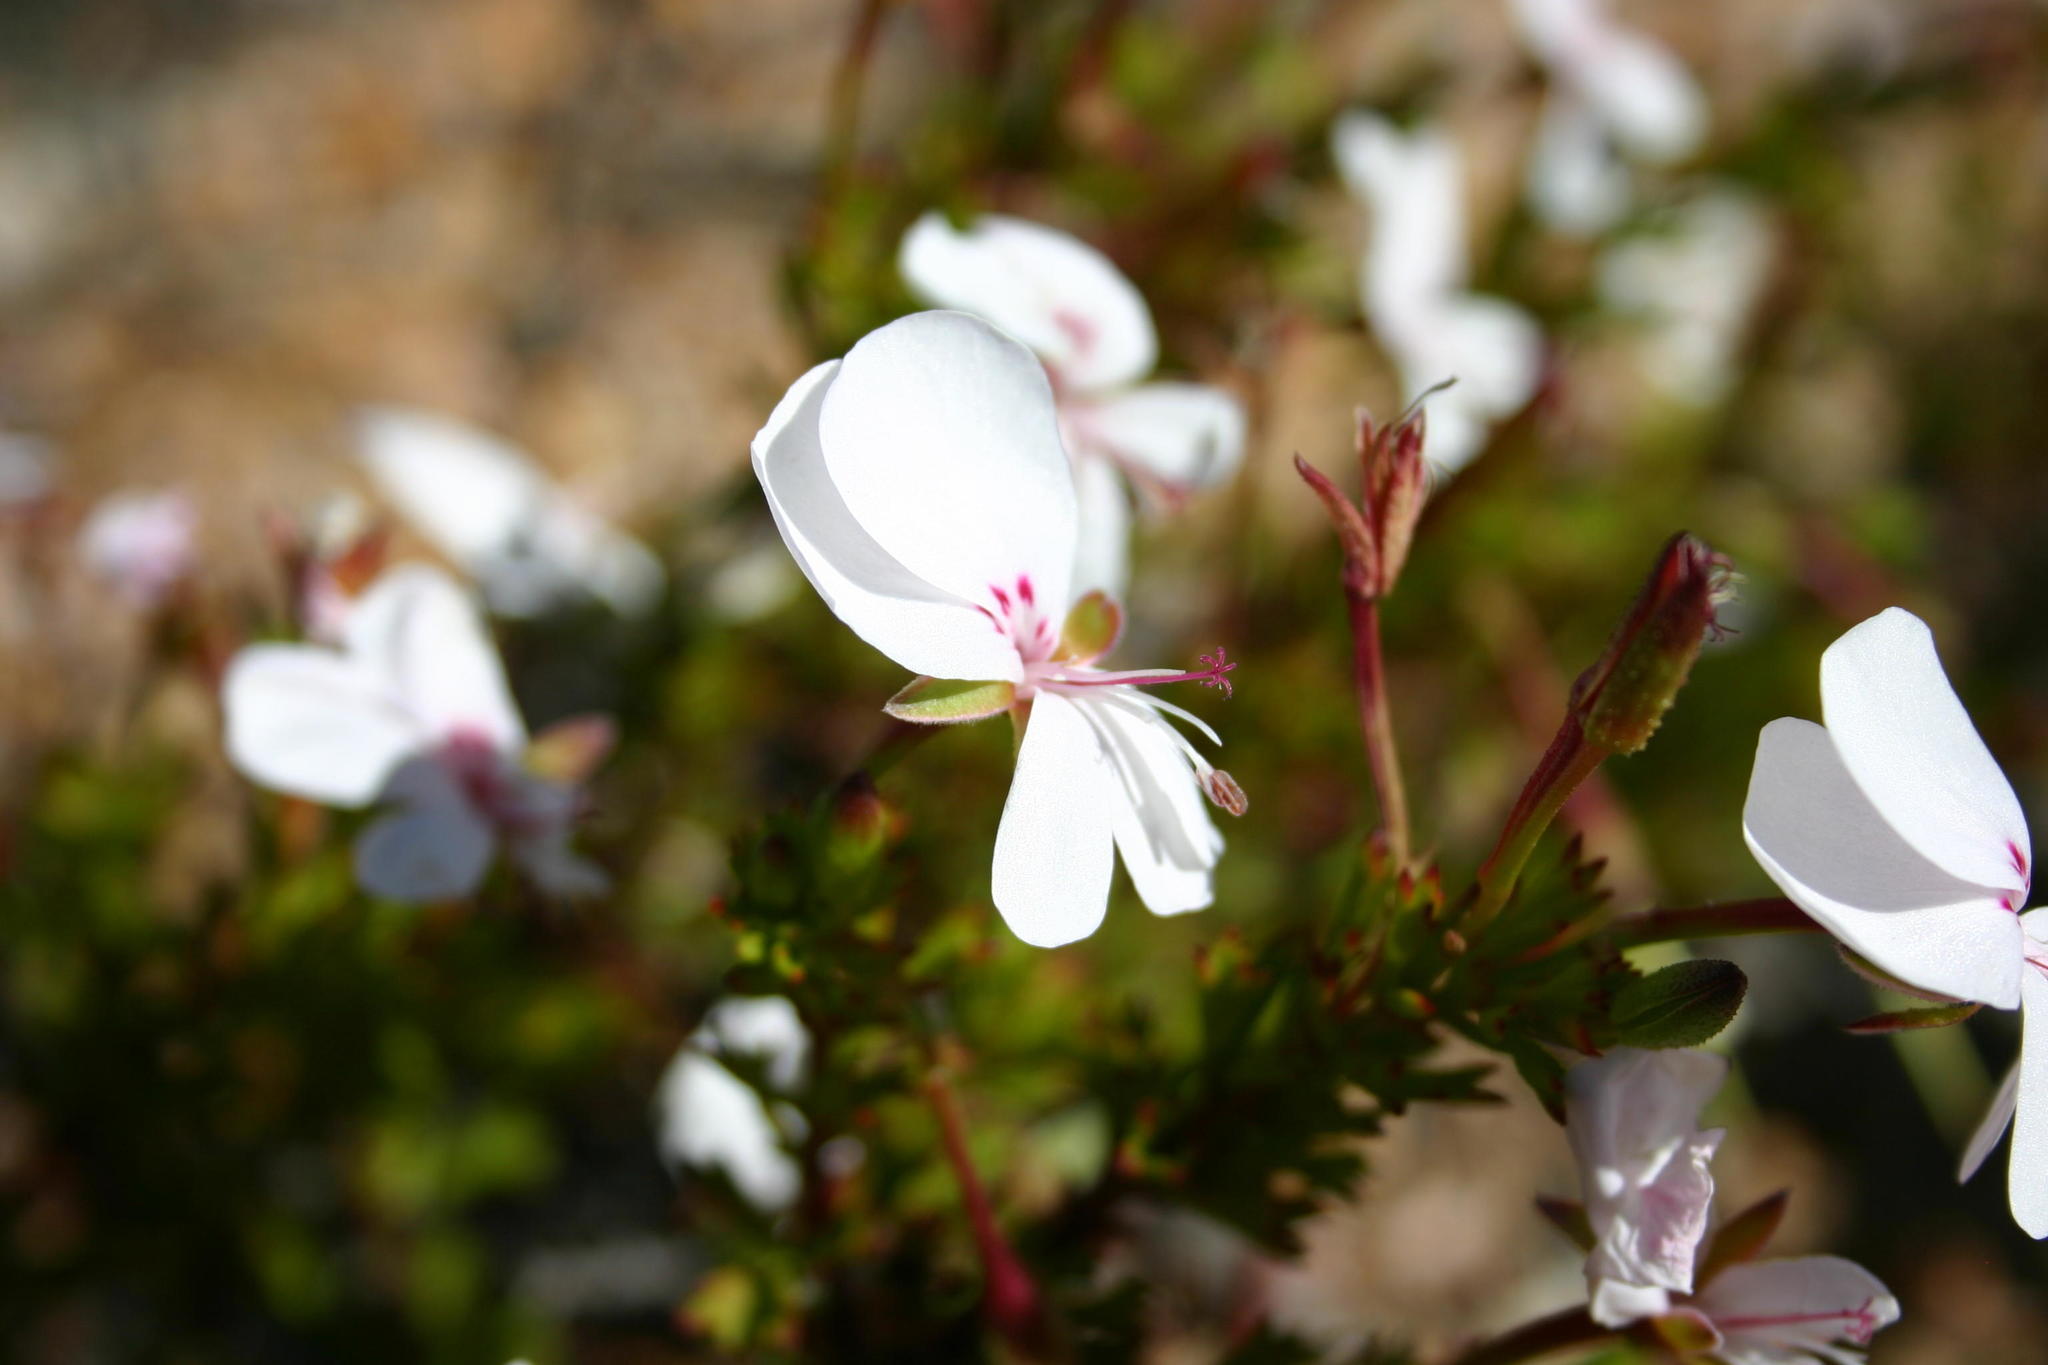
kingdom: Plantae
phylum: Tracheophyta
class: Magnoliopsida
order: Geraniales
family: Geraniaceae
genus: Pelargonium
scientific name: Pelargonium ternatum
